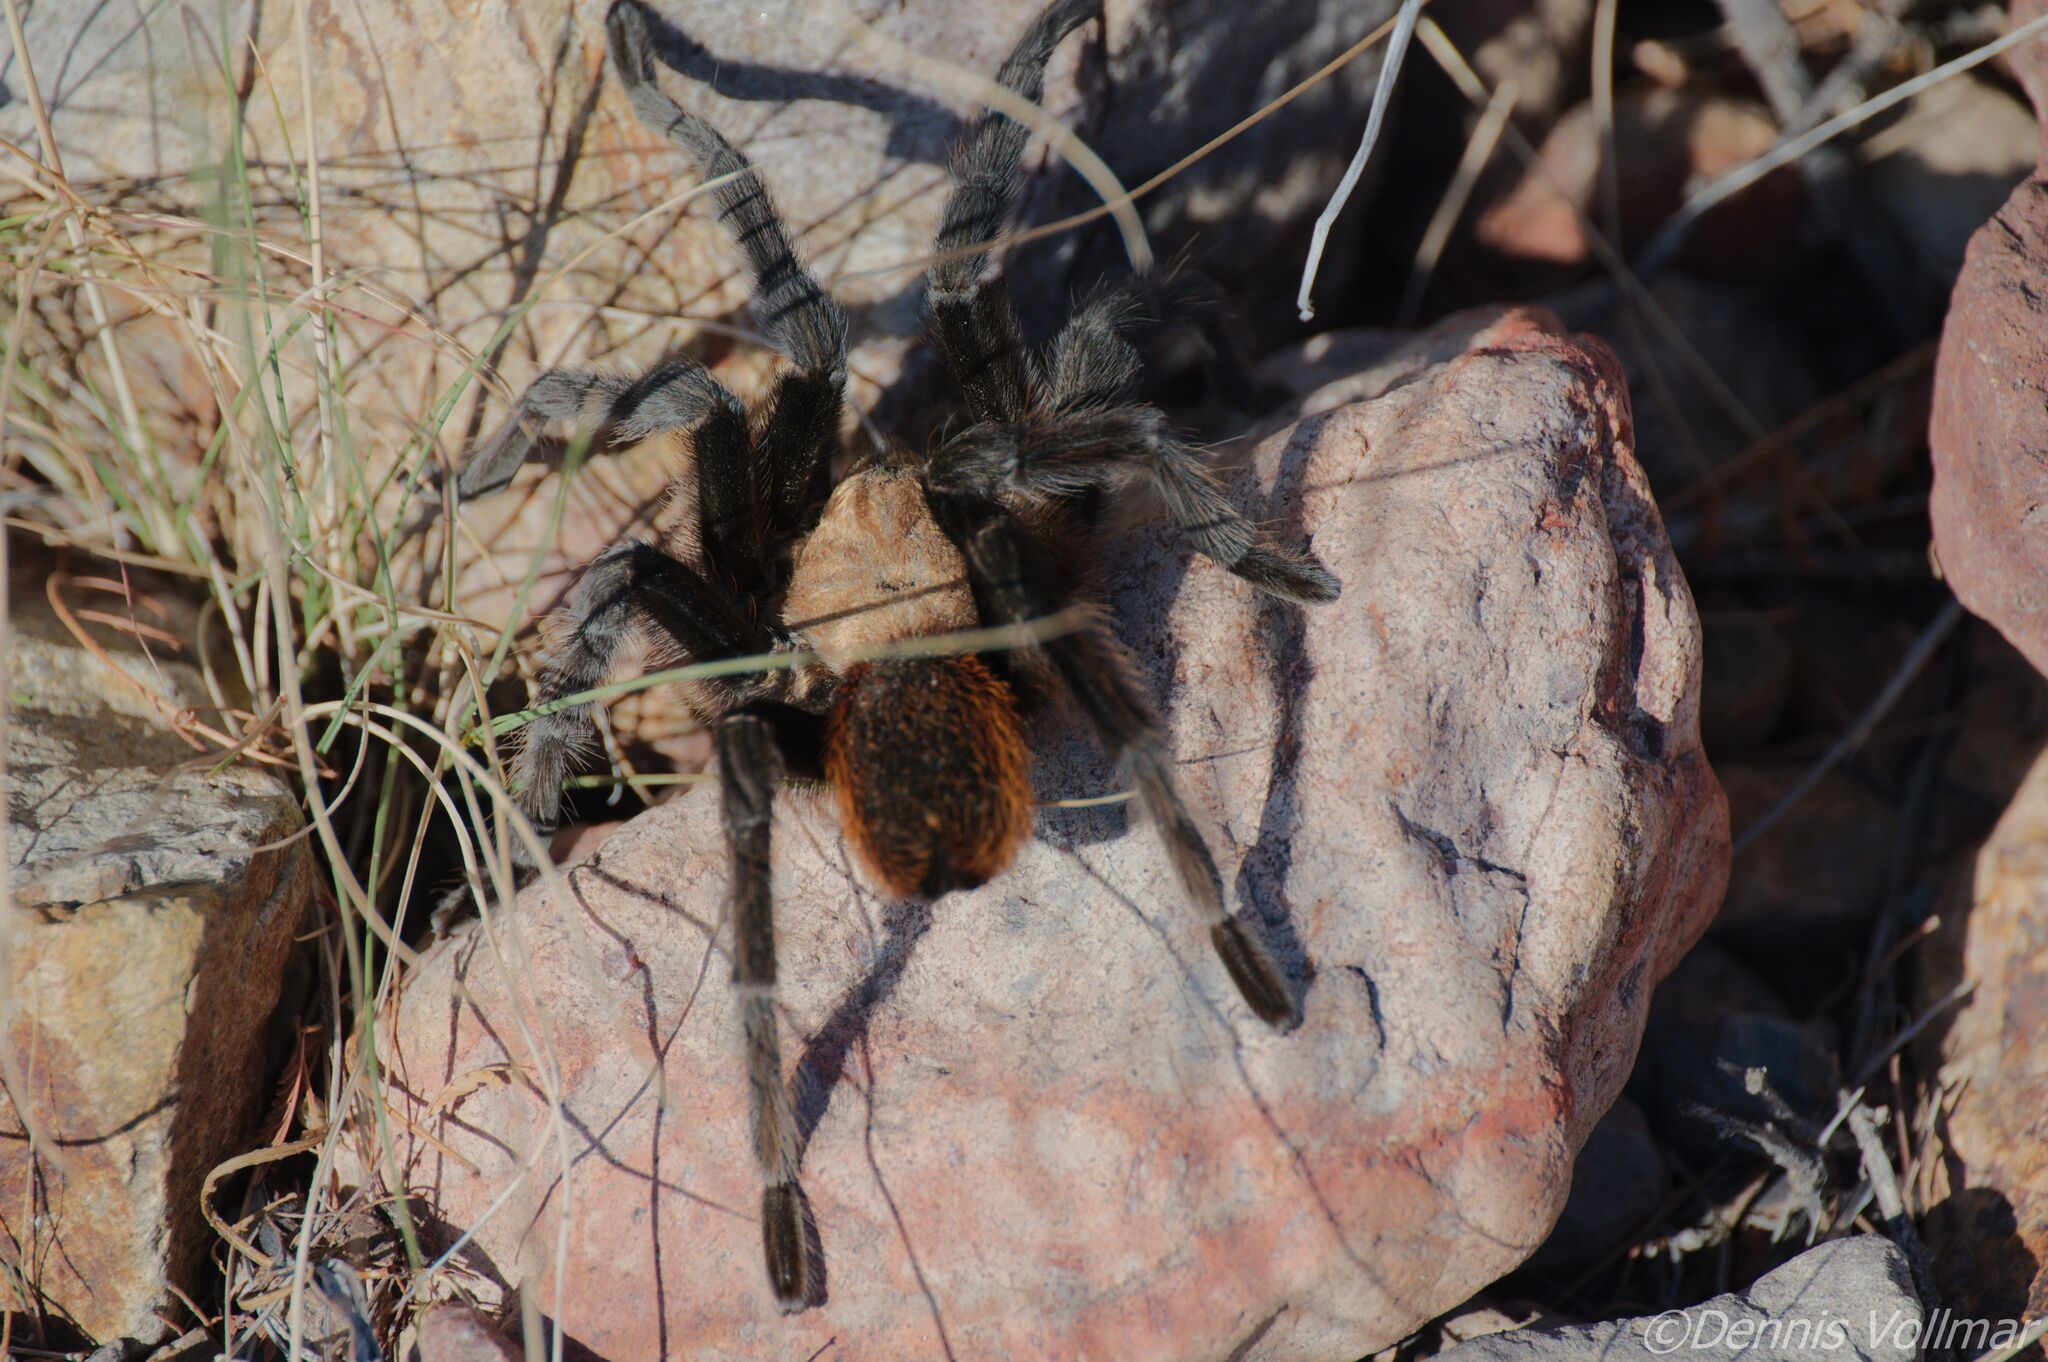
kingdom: Animalia
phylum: Arthropoda
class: Arachnida
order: Araneae
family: Theraphosidae
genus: Aphonopelma
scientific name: Aphonopelma hentzi
